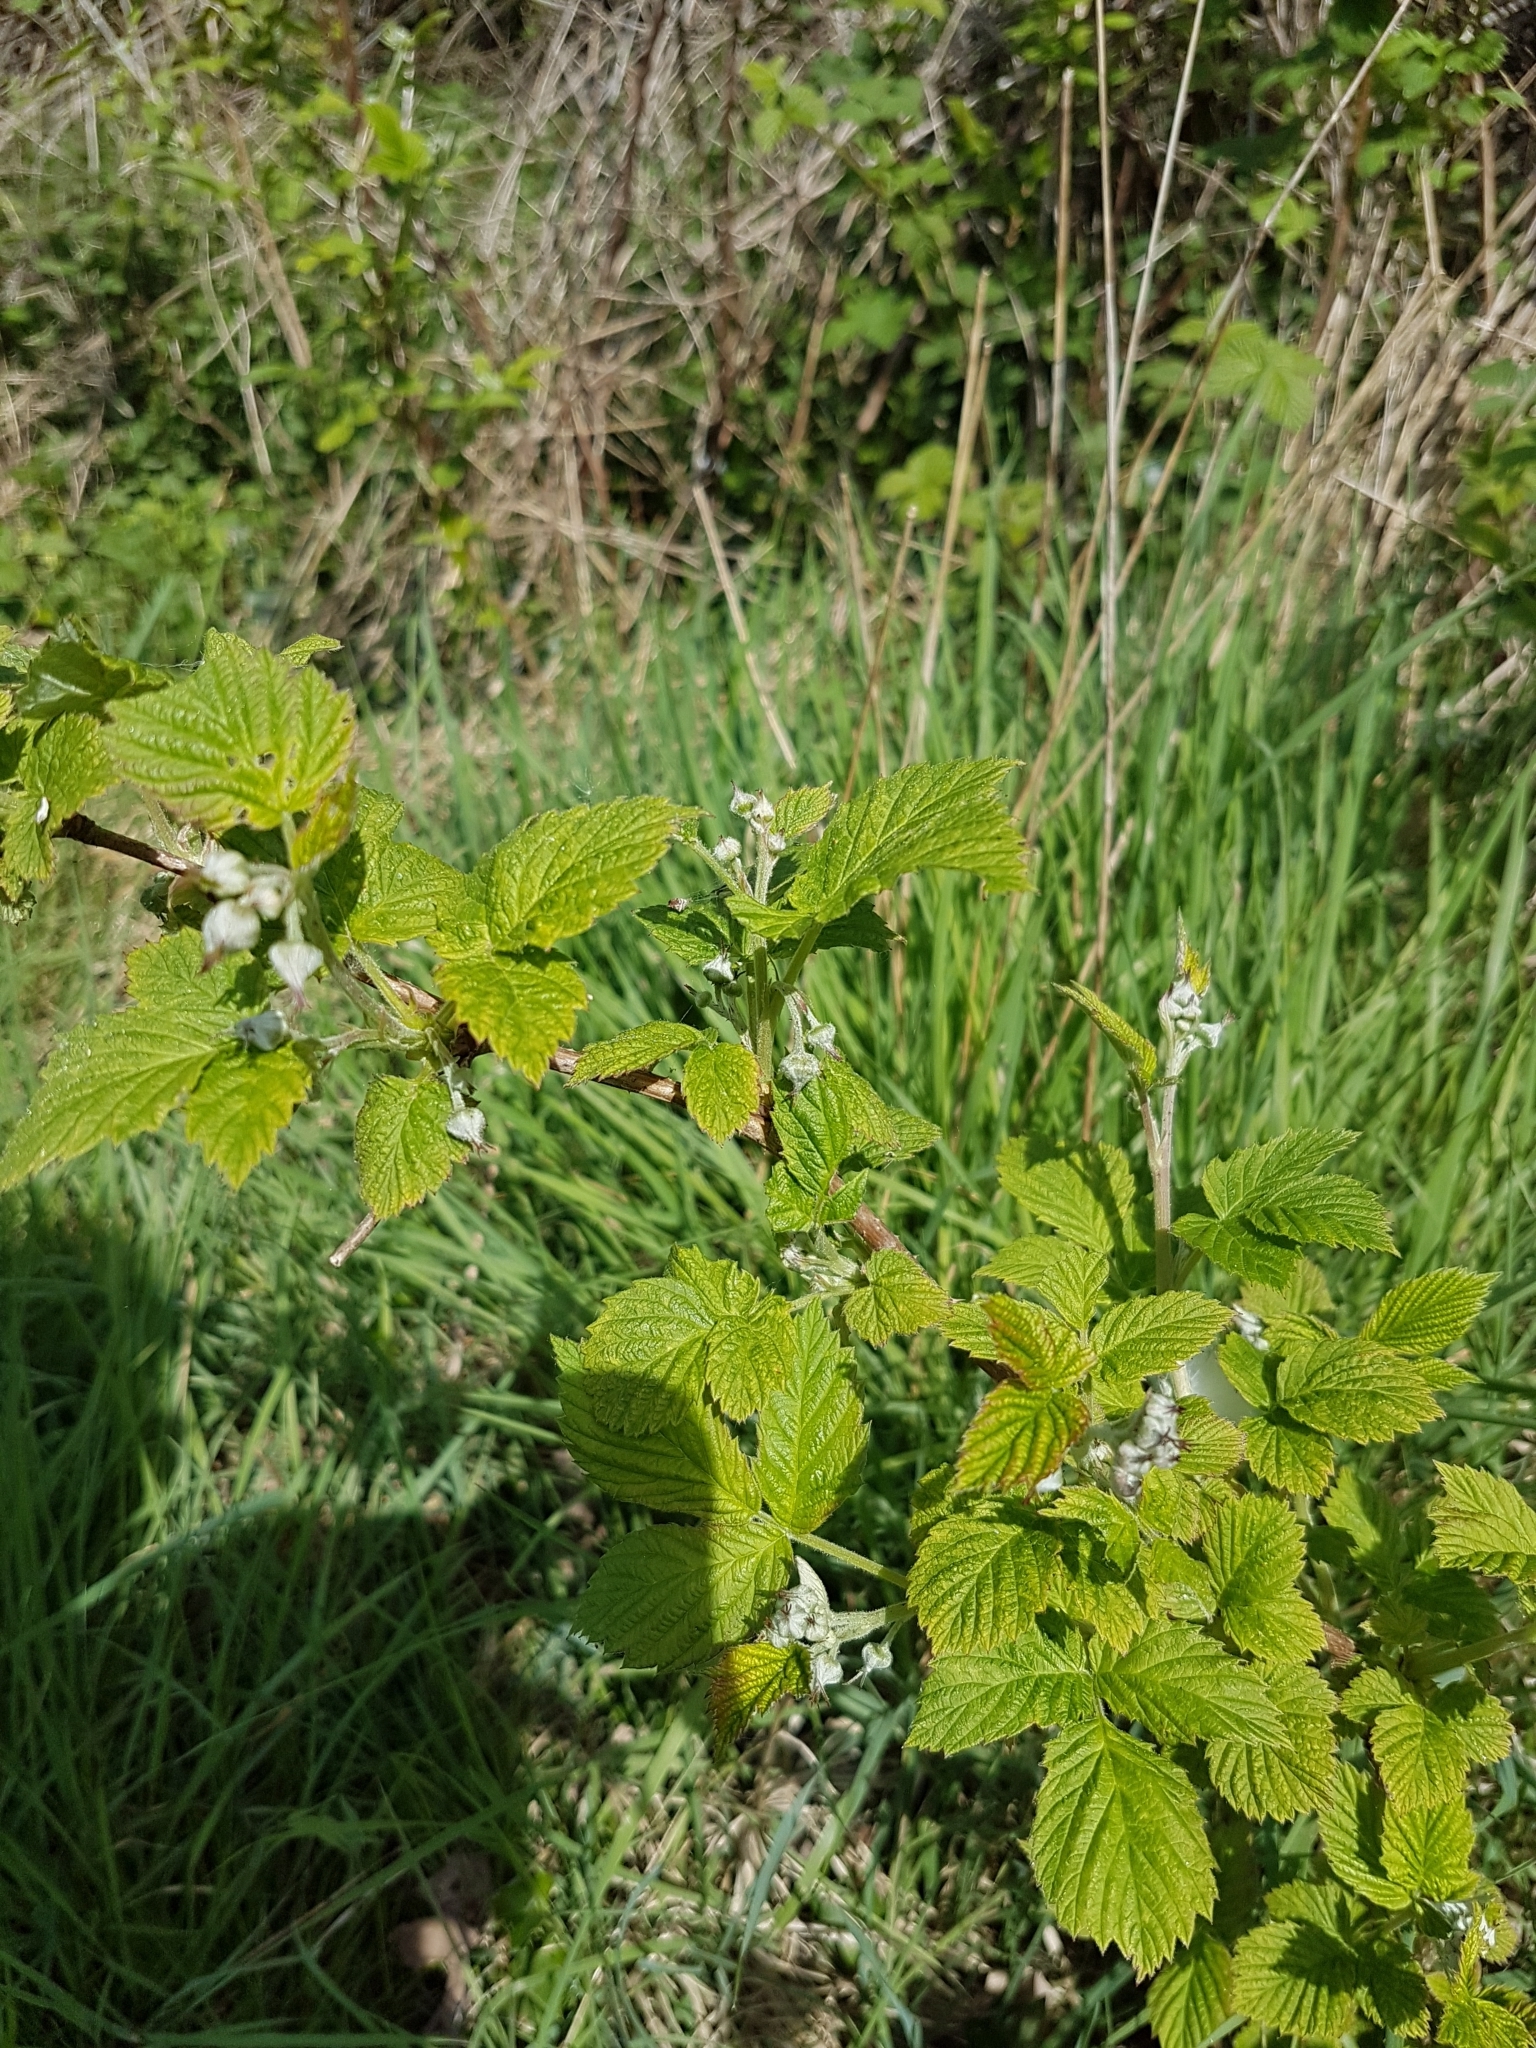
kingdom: Plantae
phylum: Tracheophyta
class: Magnoliopsida
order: Rosales
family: Rosaceae
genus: Rubus
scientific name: Rubus idaeus
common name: Raspberry
